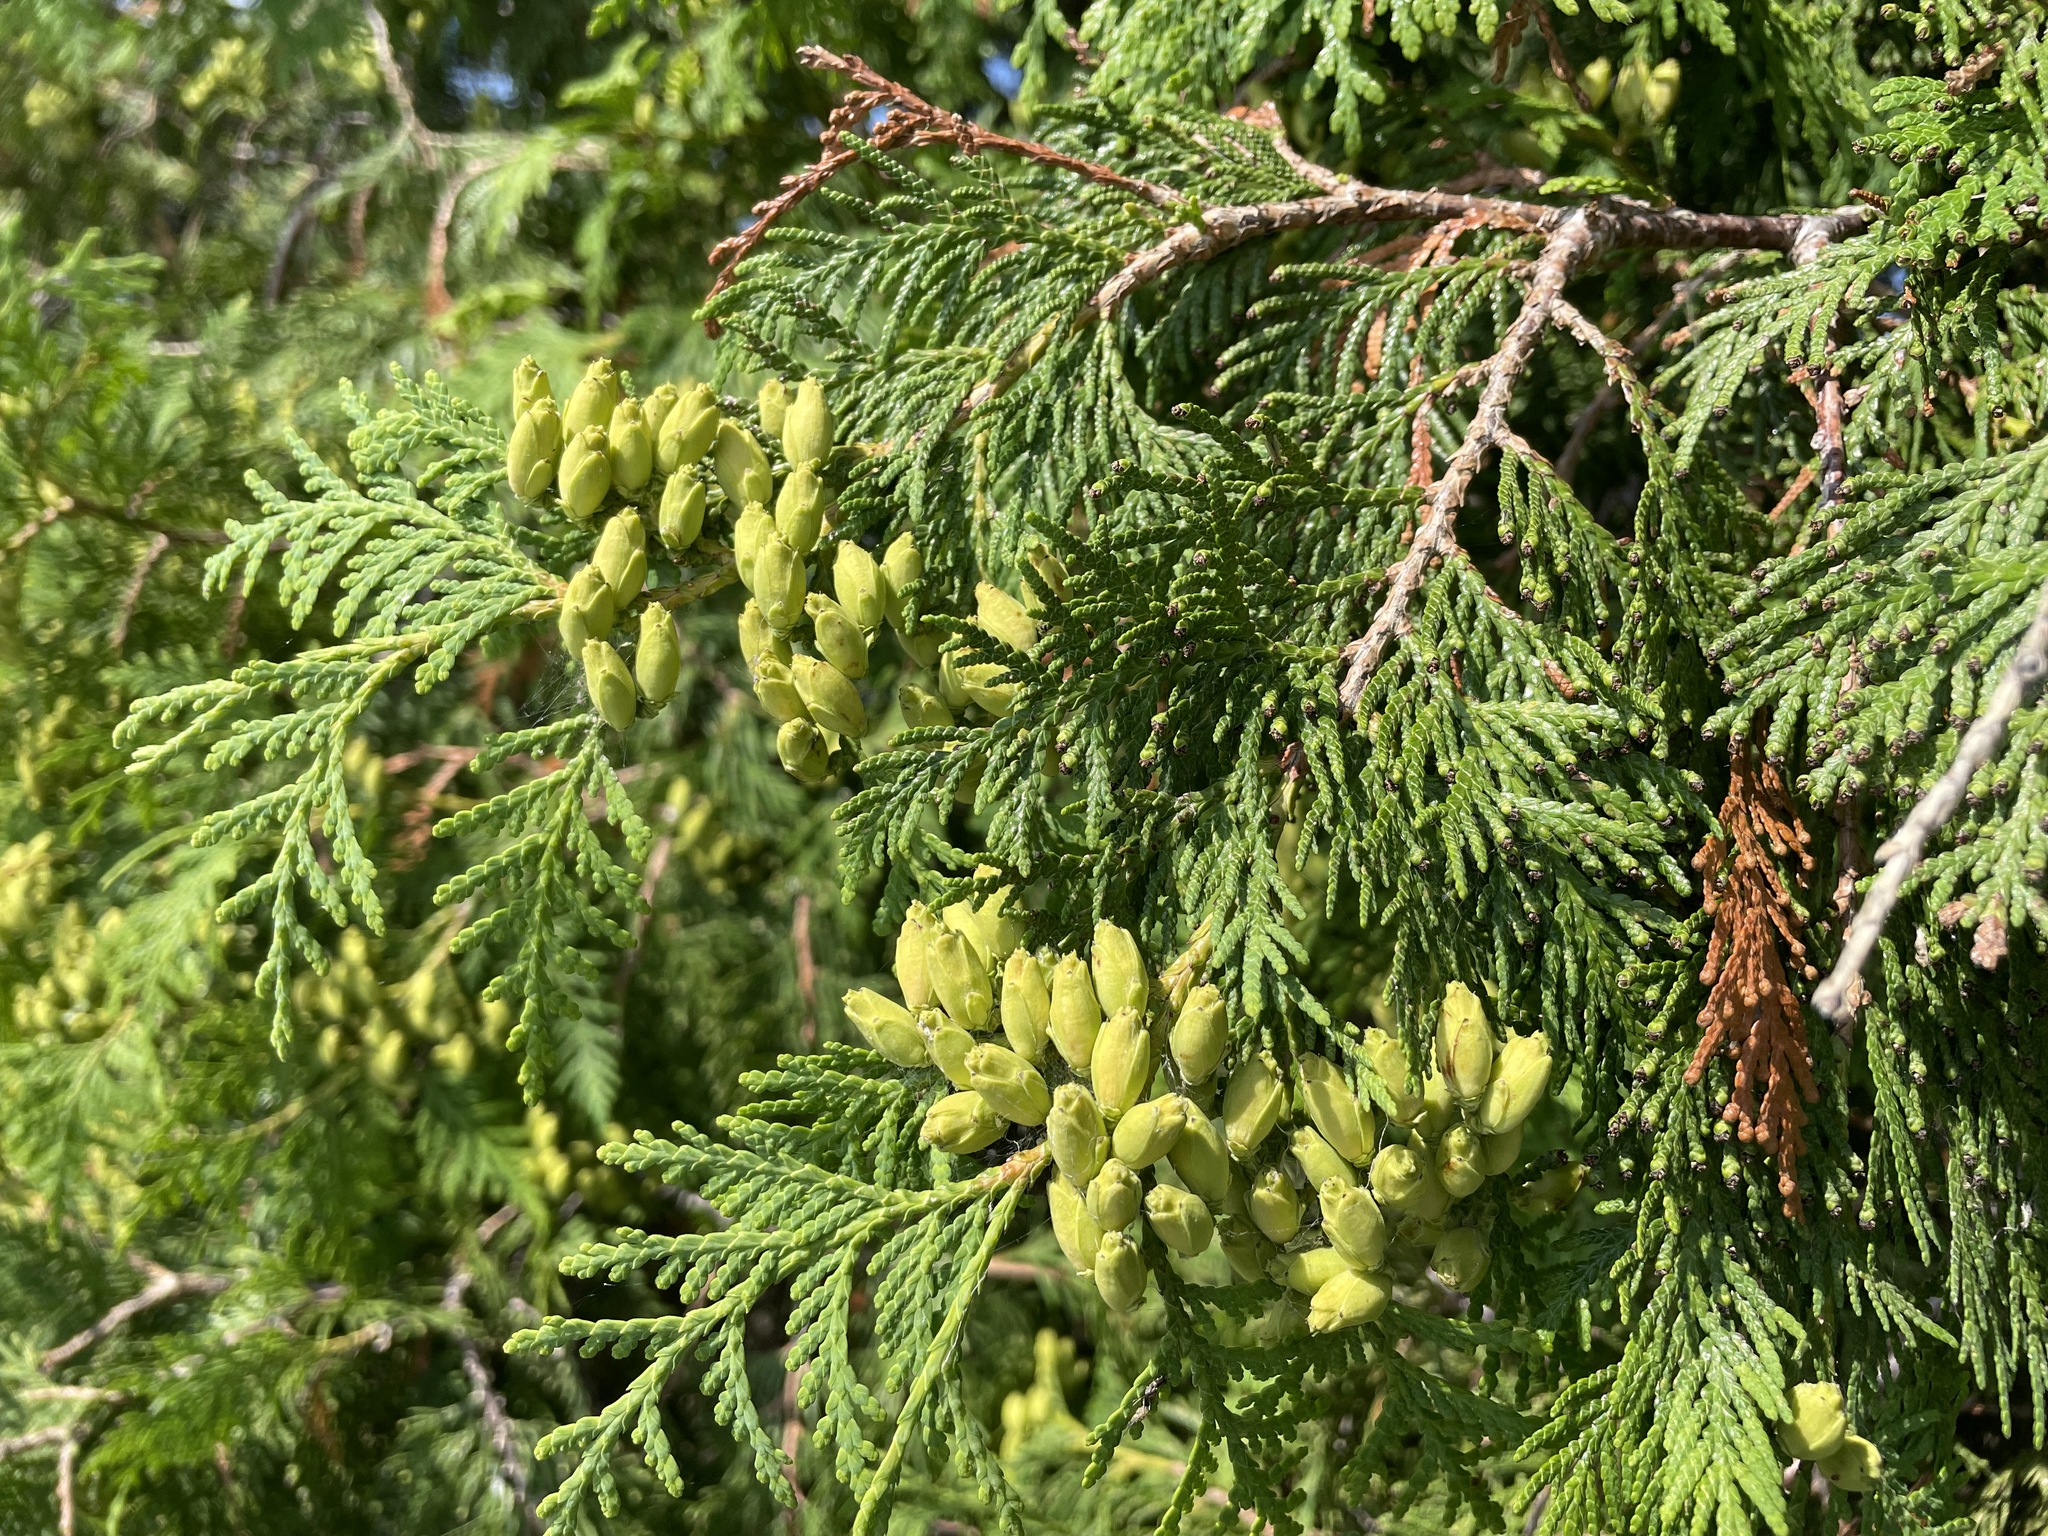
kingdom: Plantae
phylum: Tracheophyta
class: Pinopsida
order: Pinales
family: Cupressaceae
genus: Thuja
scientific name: Thuja occidentalis
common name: Northern white-cedar
